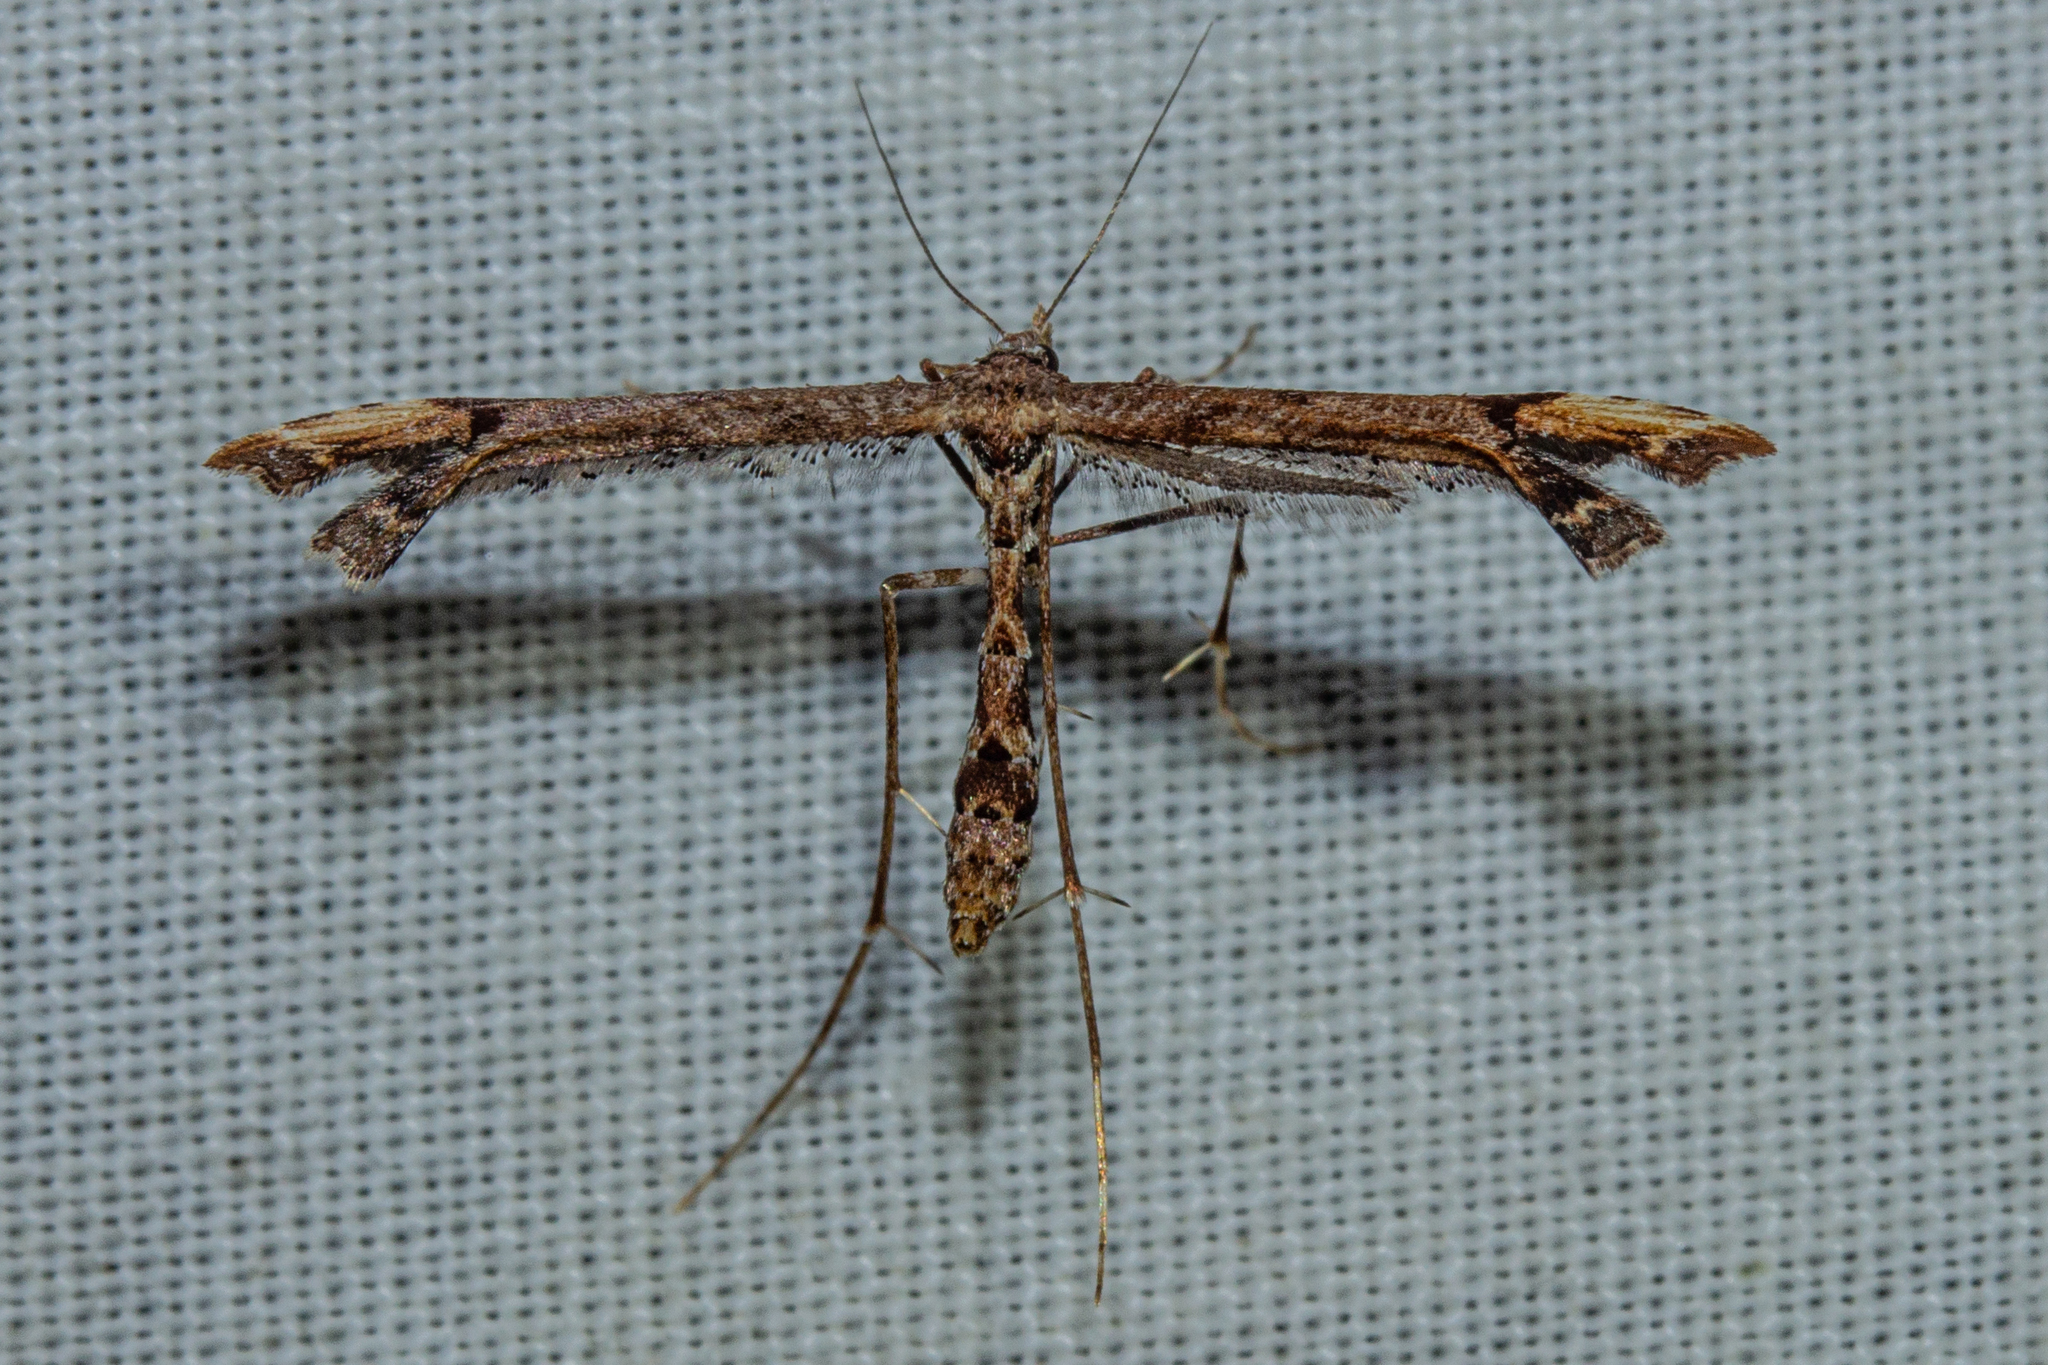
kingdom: Animalia
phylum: Arthropoda
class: Insecta
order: Lepidoptera
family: Pterophoridae
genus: Amblyptilia
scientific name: Amblyptilia repletalis
